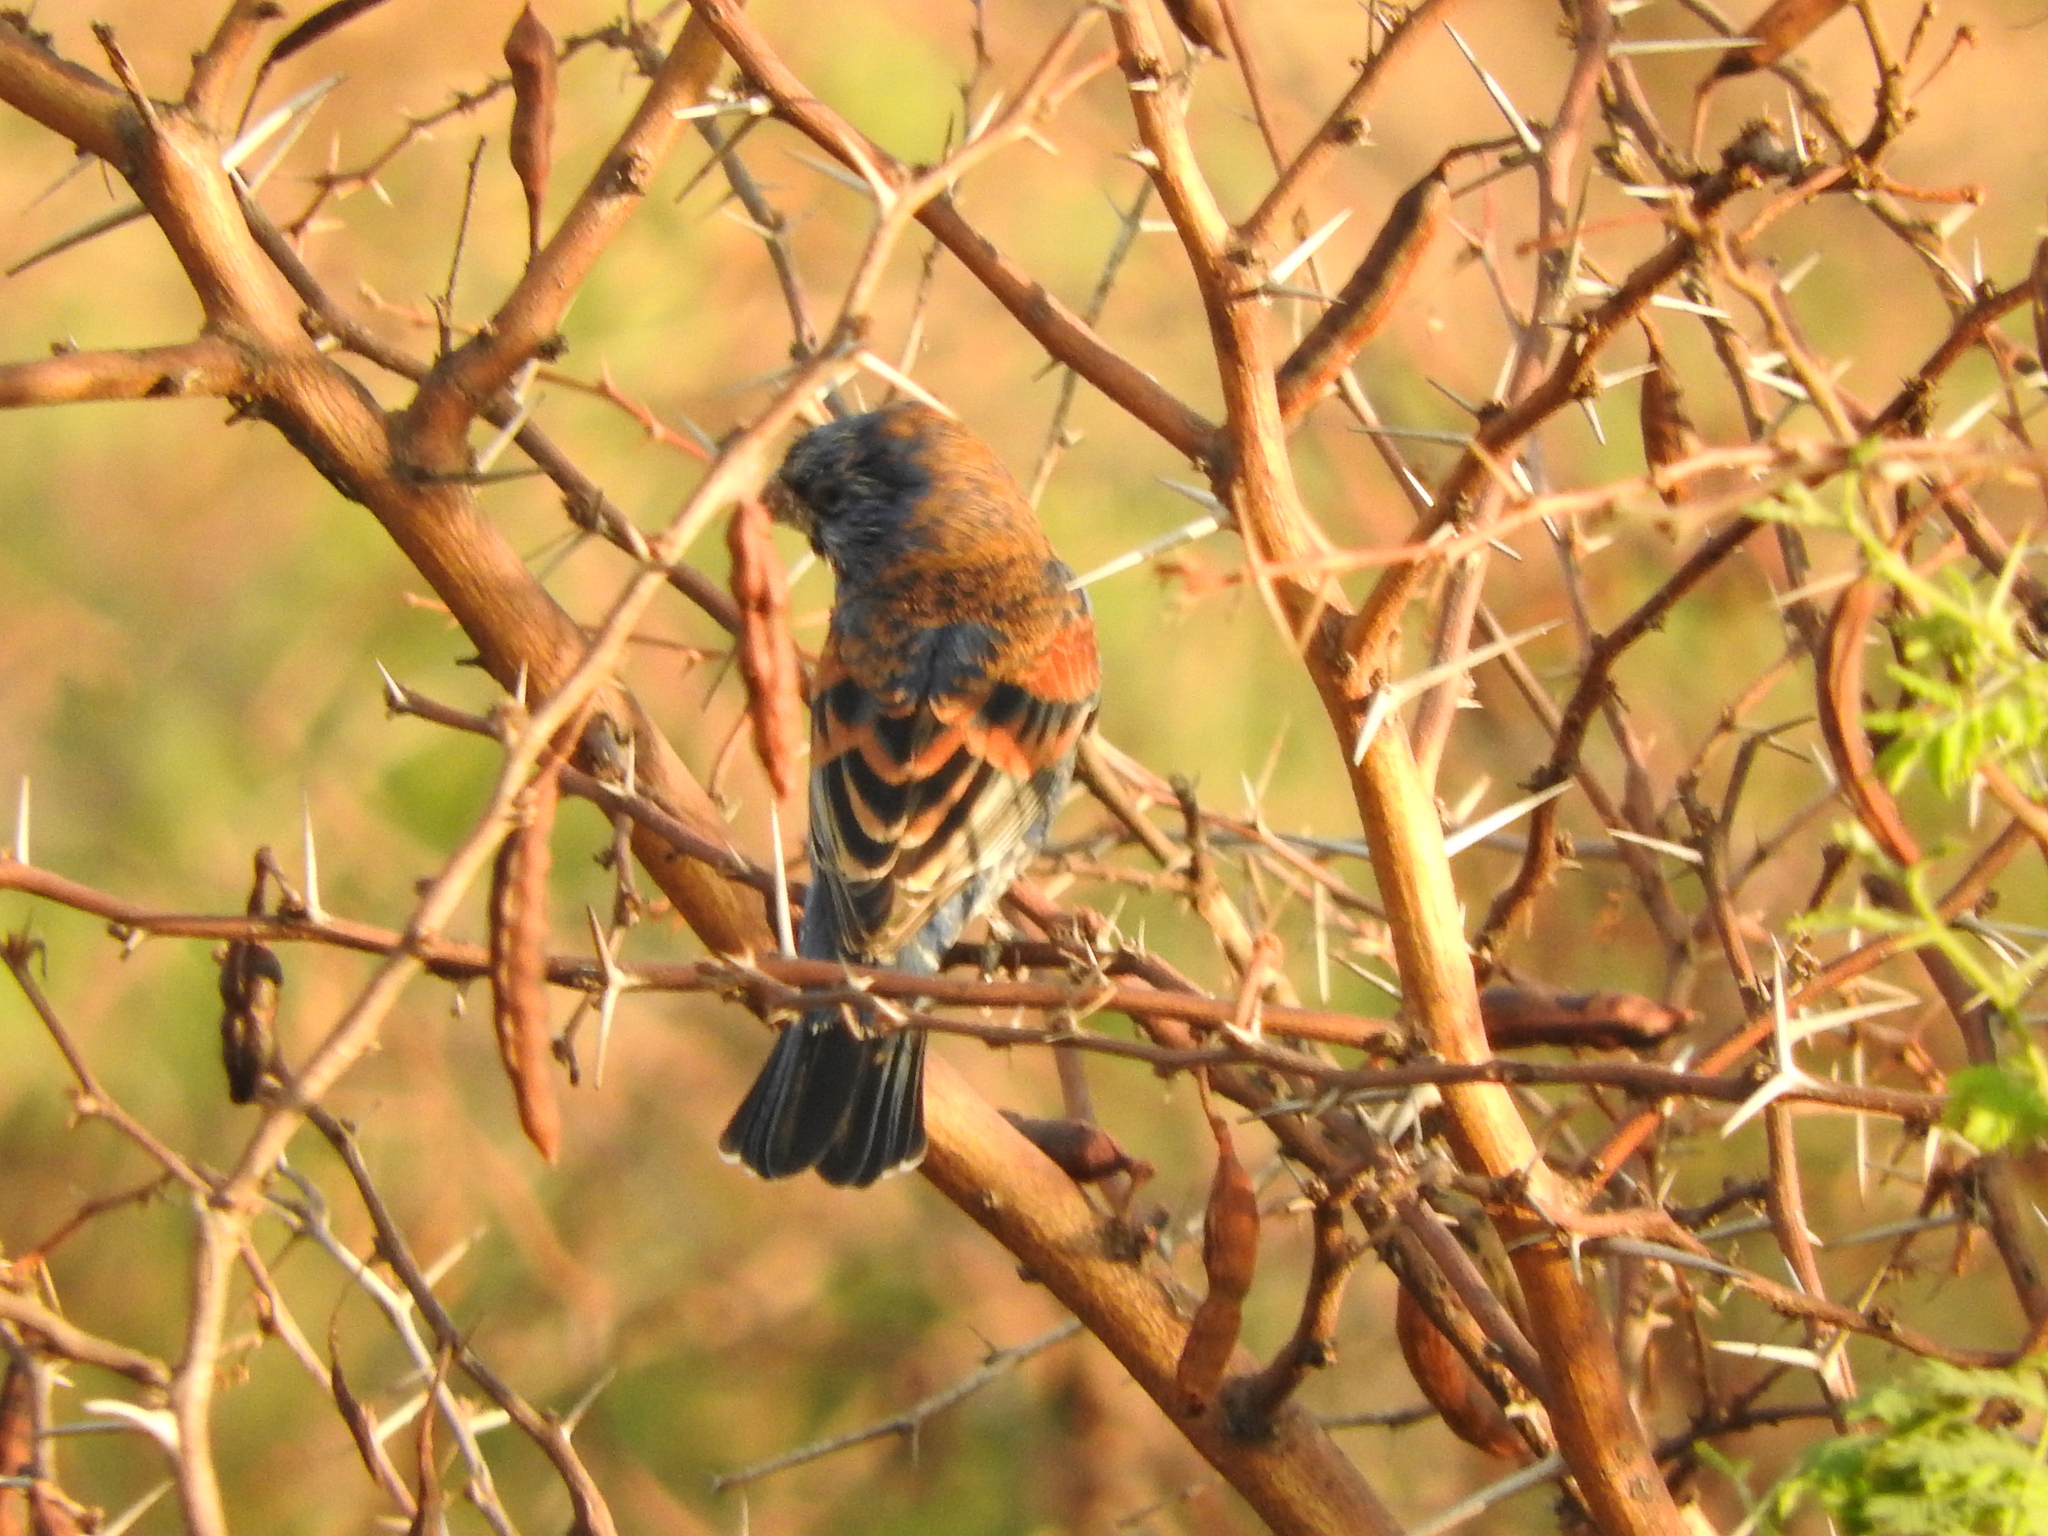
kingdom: Animalia
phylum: Chordata
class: Aves
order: Passeriformes
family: Cardinalidae
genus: Passerina
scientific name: Passerina caerulea
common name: Blue grosbeak
